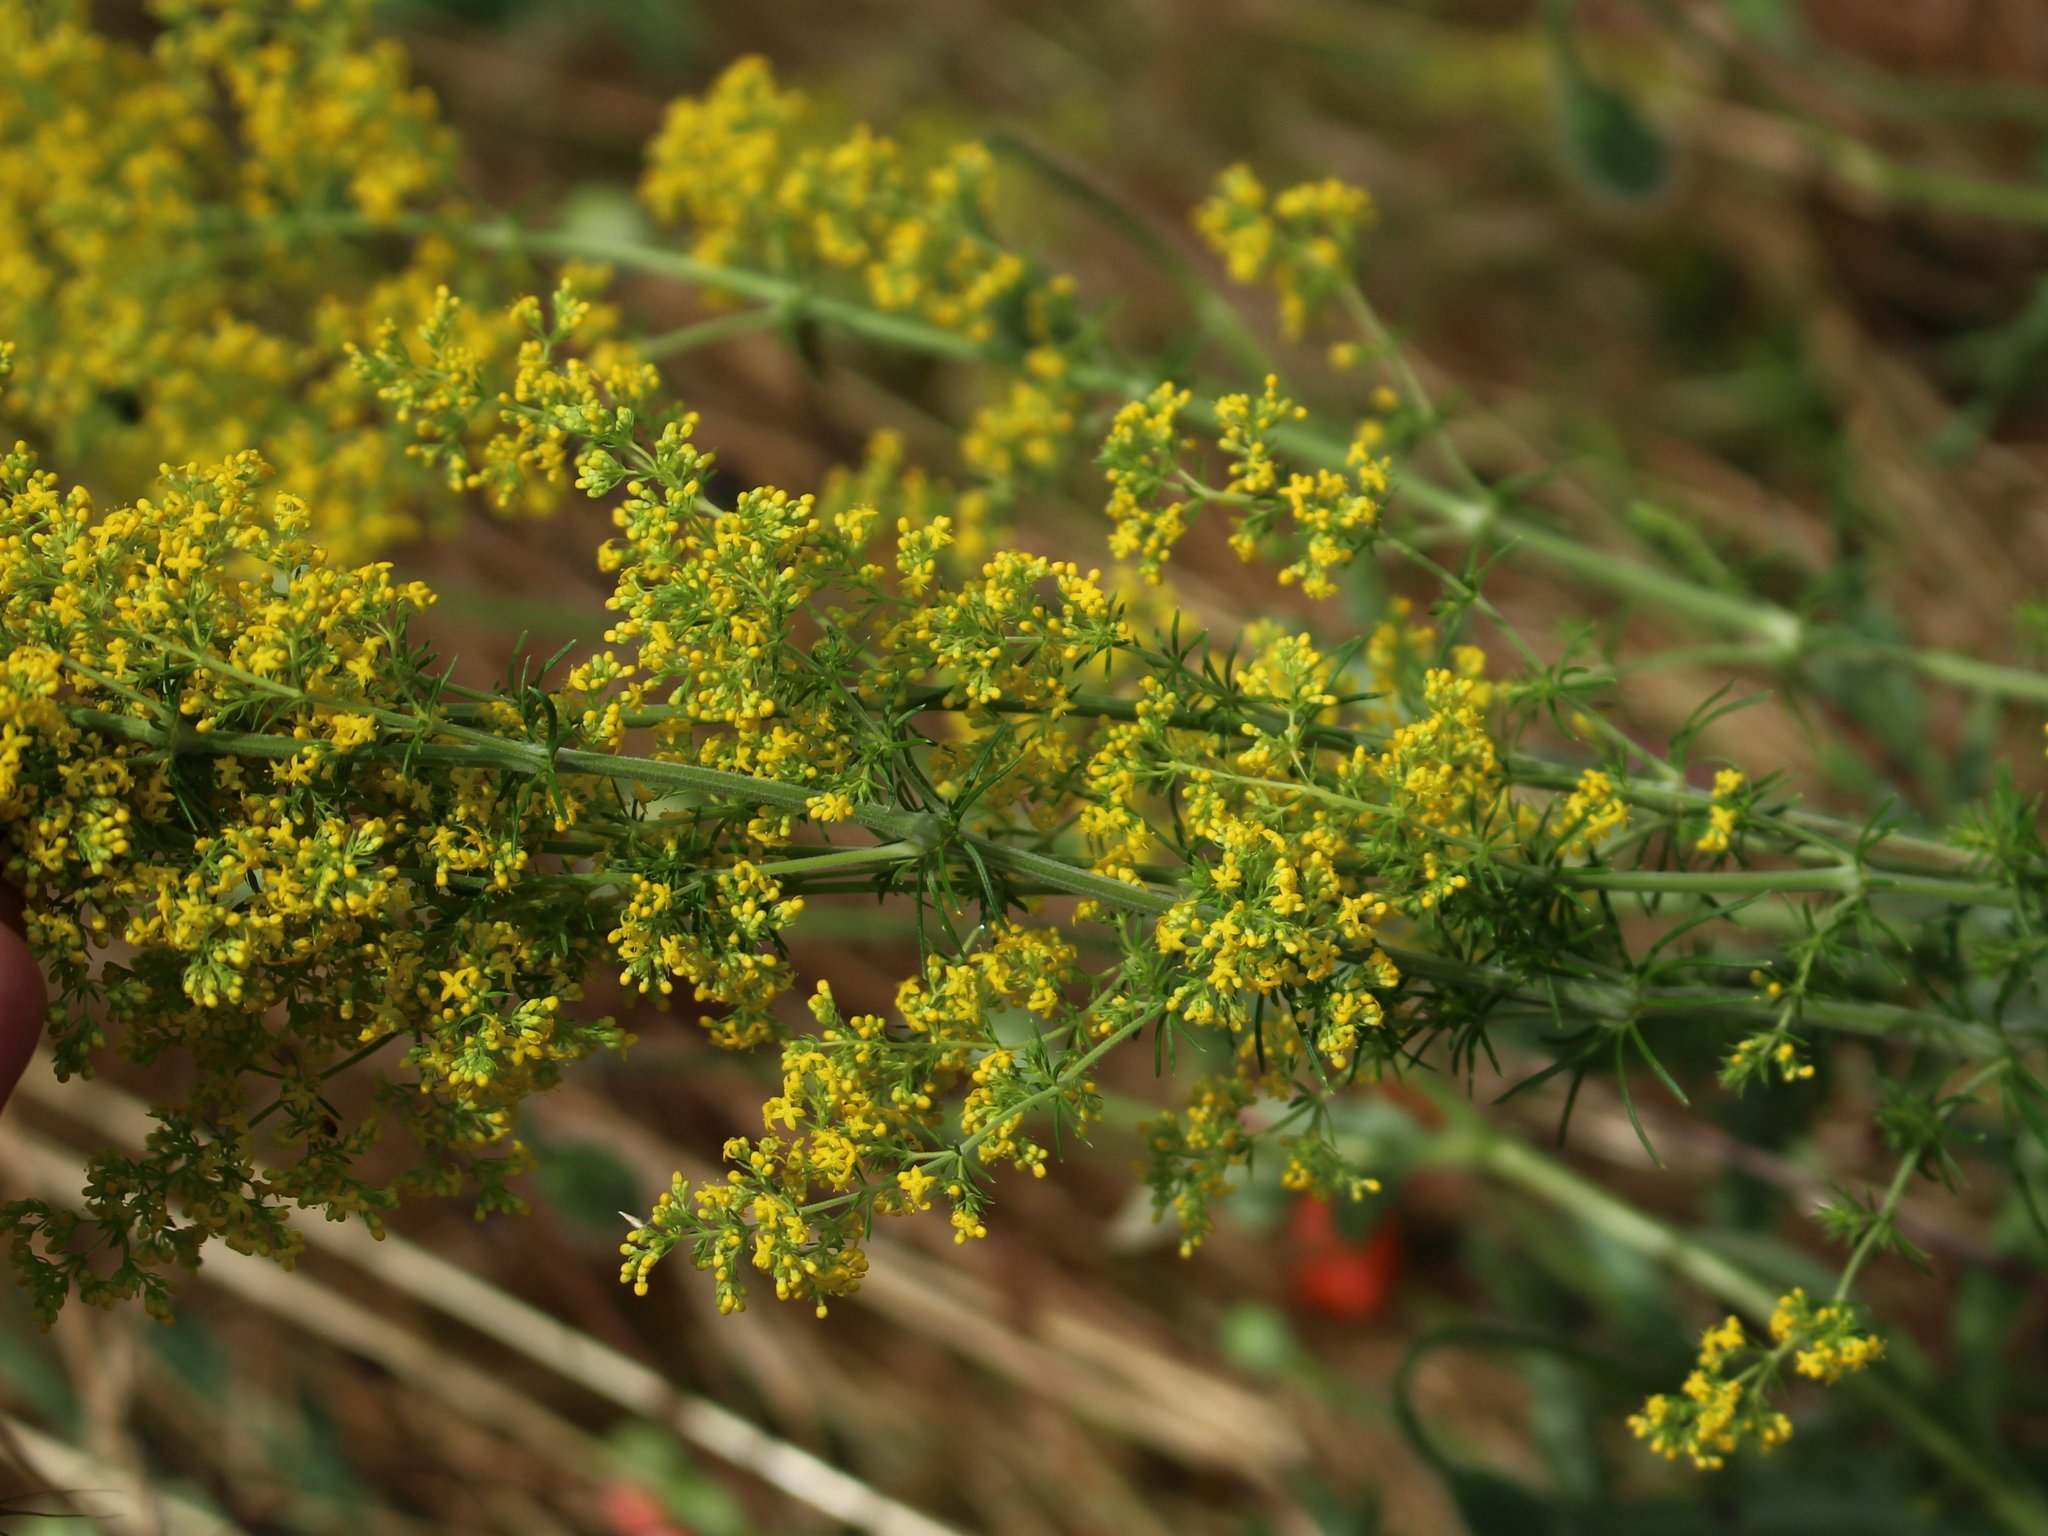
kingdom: Plantae
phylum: Tracheophyta
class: Magnoliopsida
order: Gentianales
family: Rubiaceae
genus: Galium
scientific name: Galium verum
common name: Lady's bedstraw
